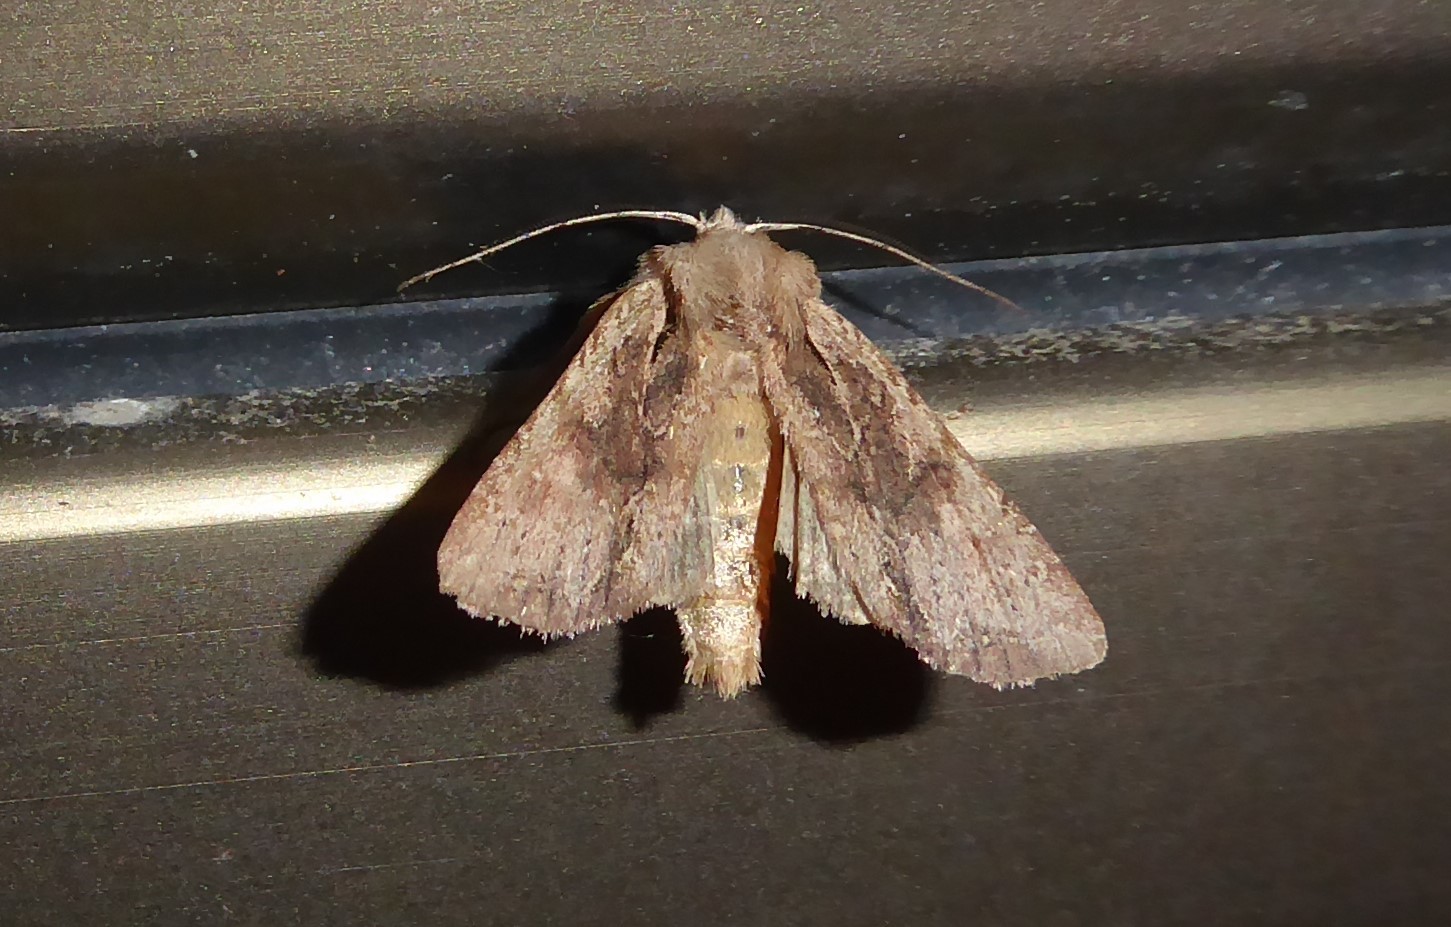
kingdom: Animalia
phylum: Arthropoda
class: Insecta
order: Lepidoptera
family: Noctuidae
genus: Ichneutica
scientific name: Ichneutica mutans
